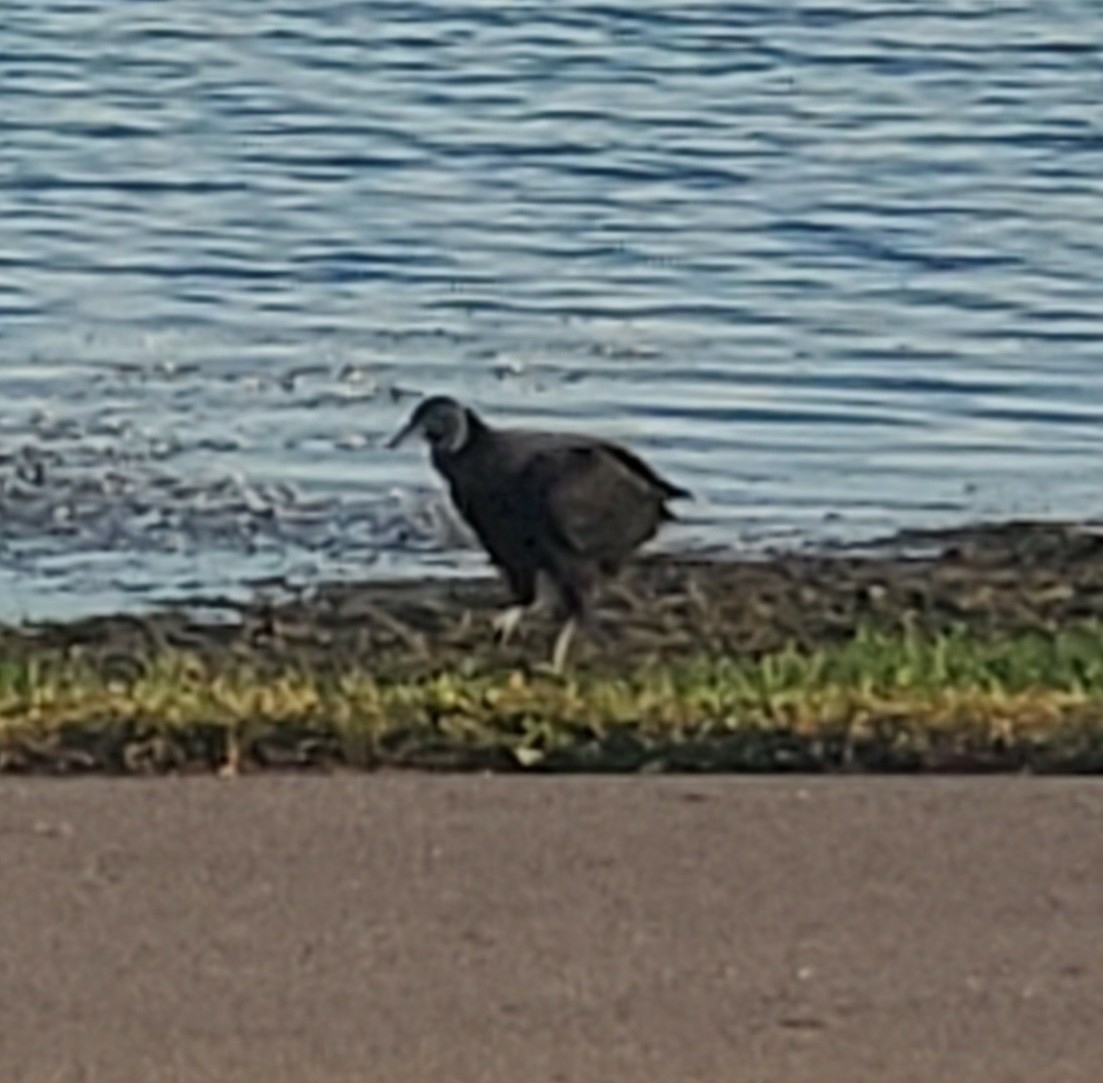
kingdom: Animalia
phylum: Chordata
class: Aves
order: Accipitriformes
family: Cathartidae
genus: Coragyps
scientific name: Coragyps atratus
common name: Black vulture
